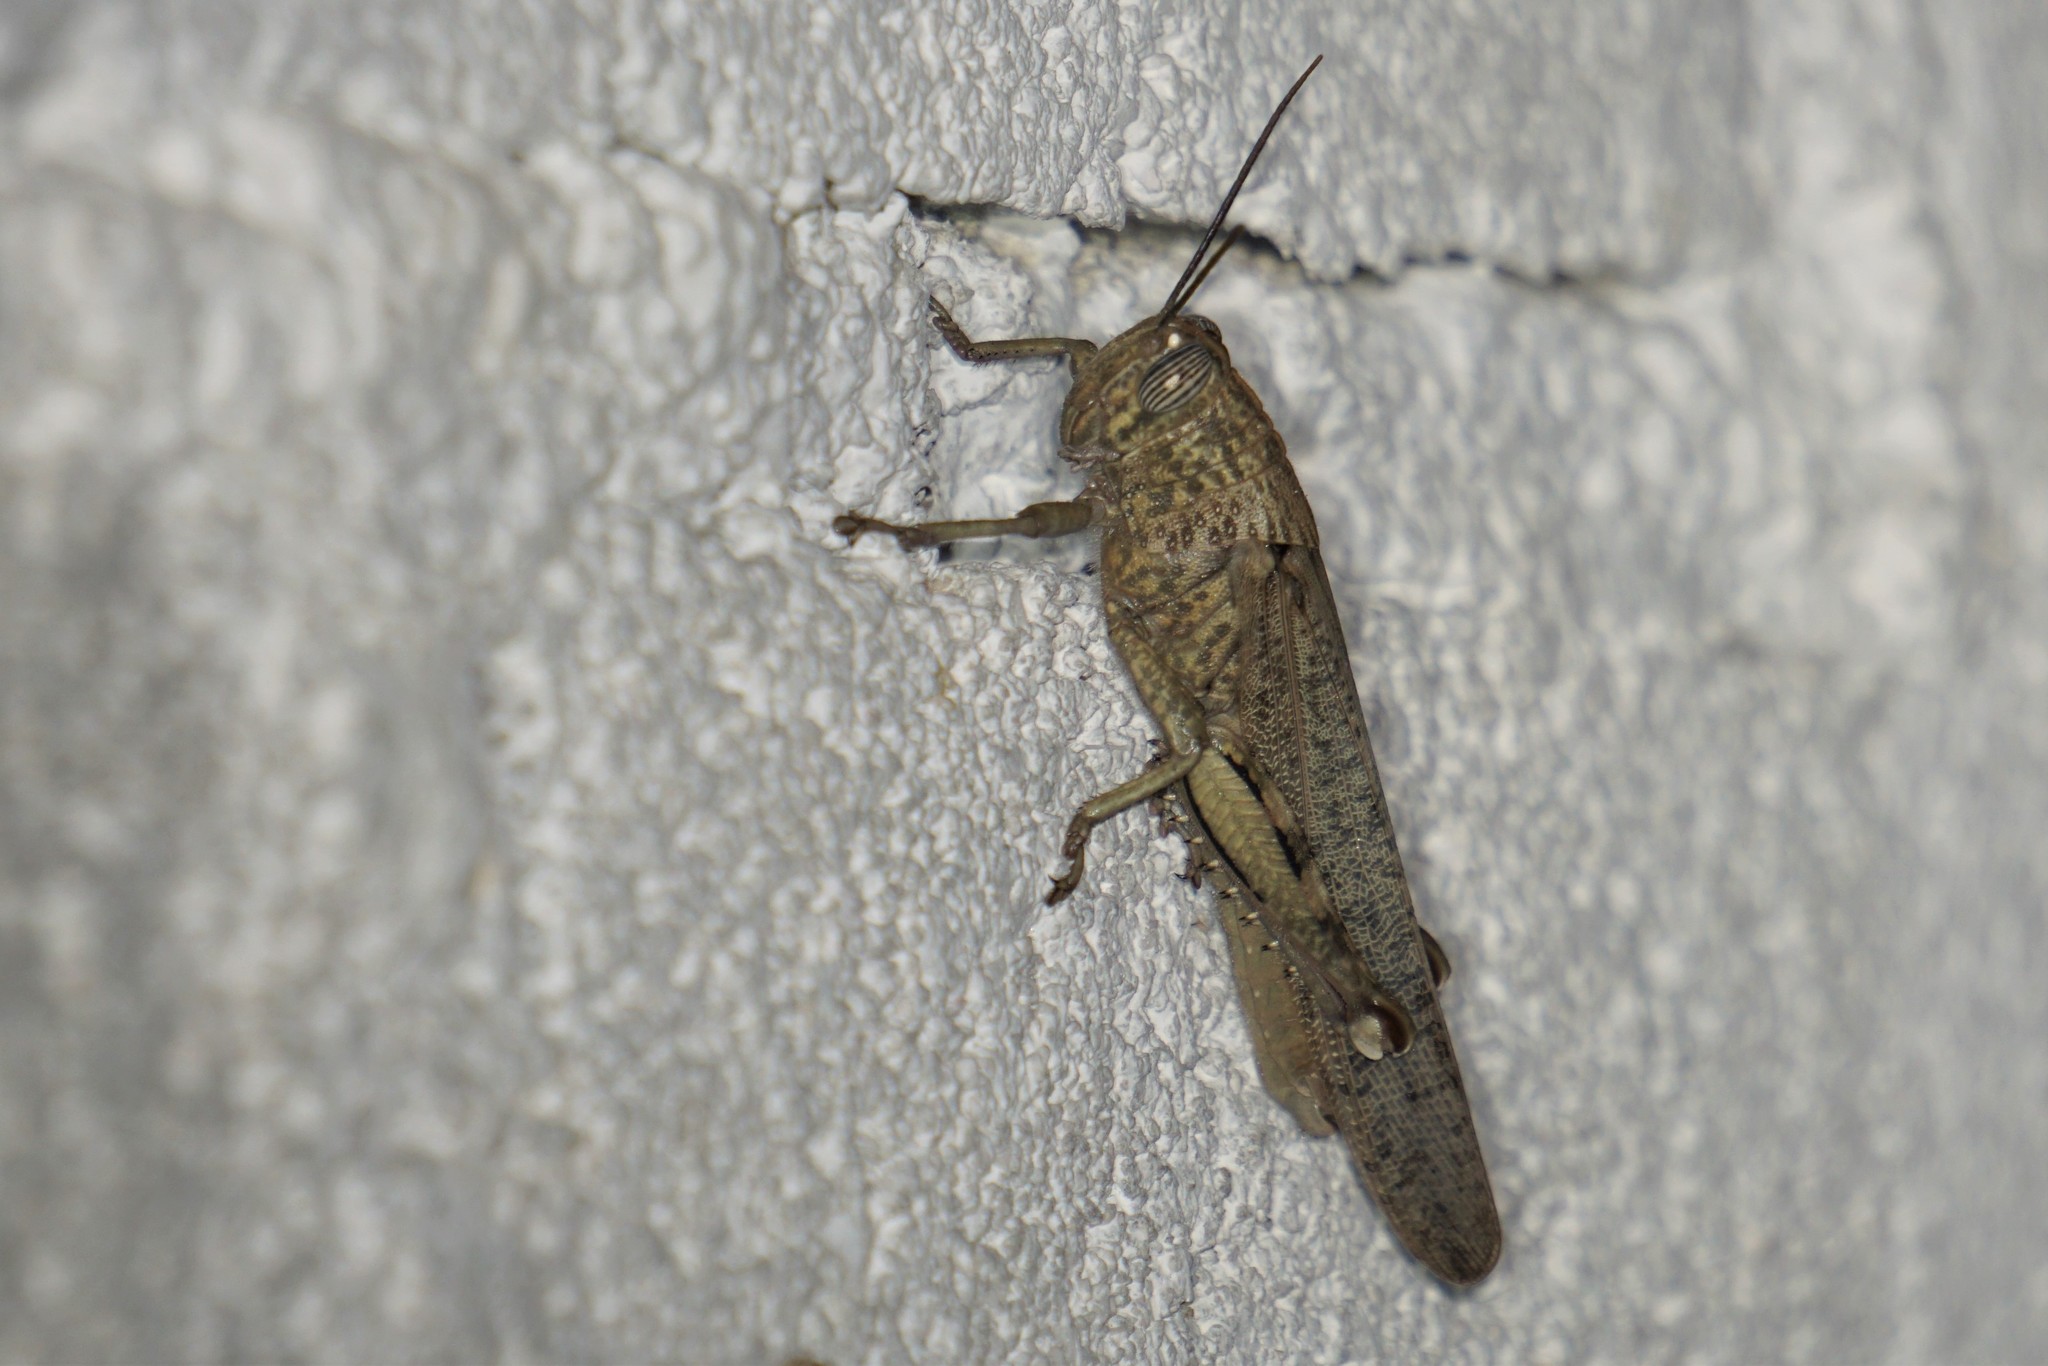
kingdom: Animalia
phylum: Arthropoda
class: Insecta
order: Orthoptera
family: Acrididae
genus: Anacridium
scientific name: Anacridium aegyptium
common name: Egyptian grasshopper
